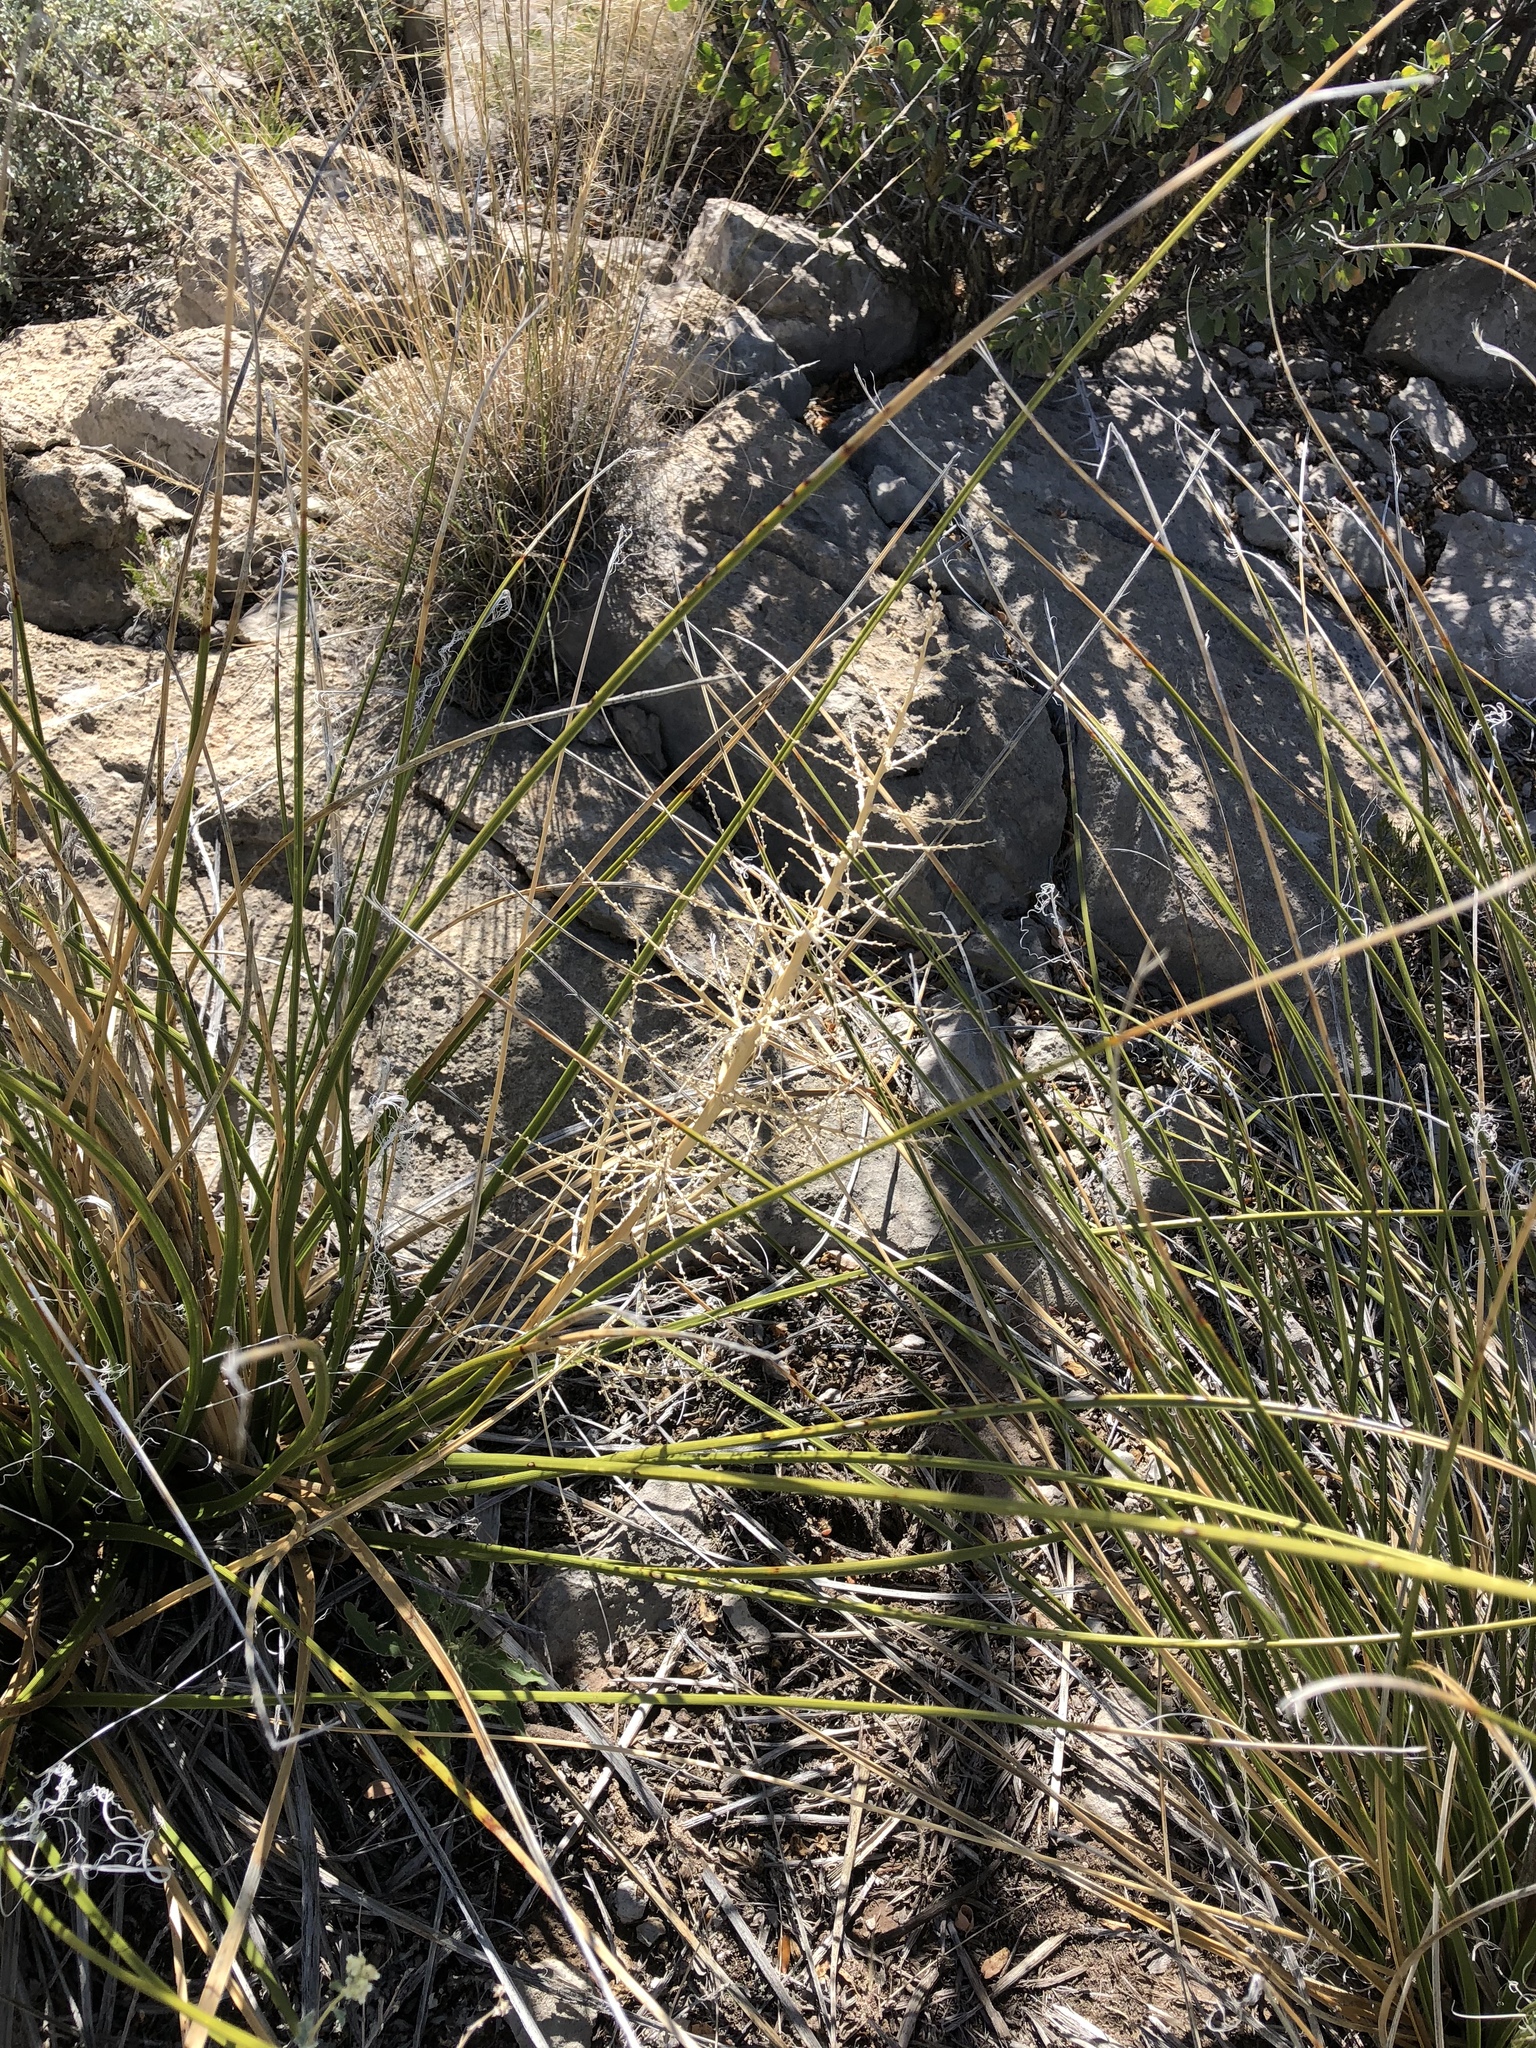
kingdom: Plantae
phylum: Tracheophyta
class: Liliopsida
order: Asparagales
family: Asparagaceae
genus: Nolina
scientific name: Nolina microcarpa
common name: Bear-grass
